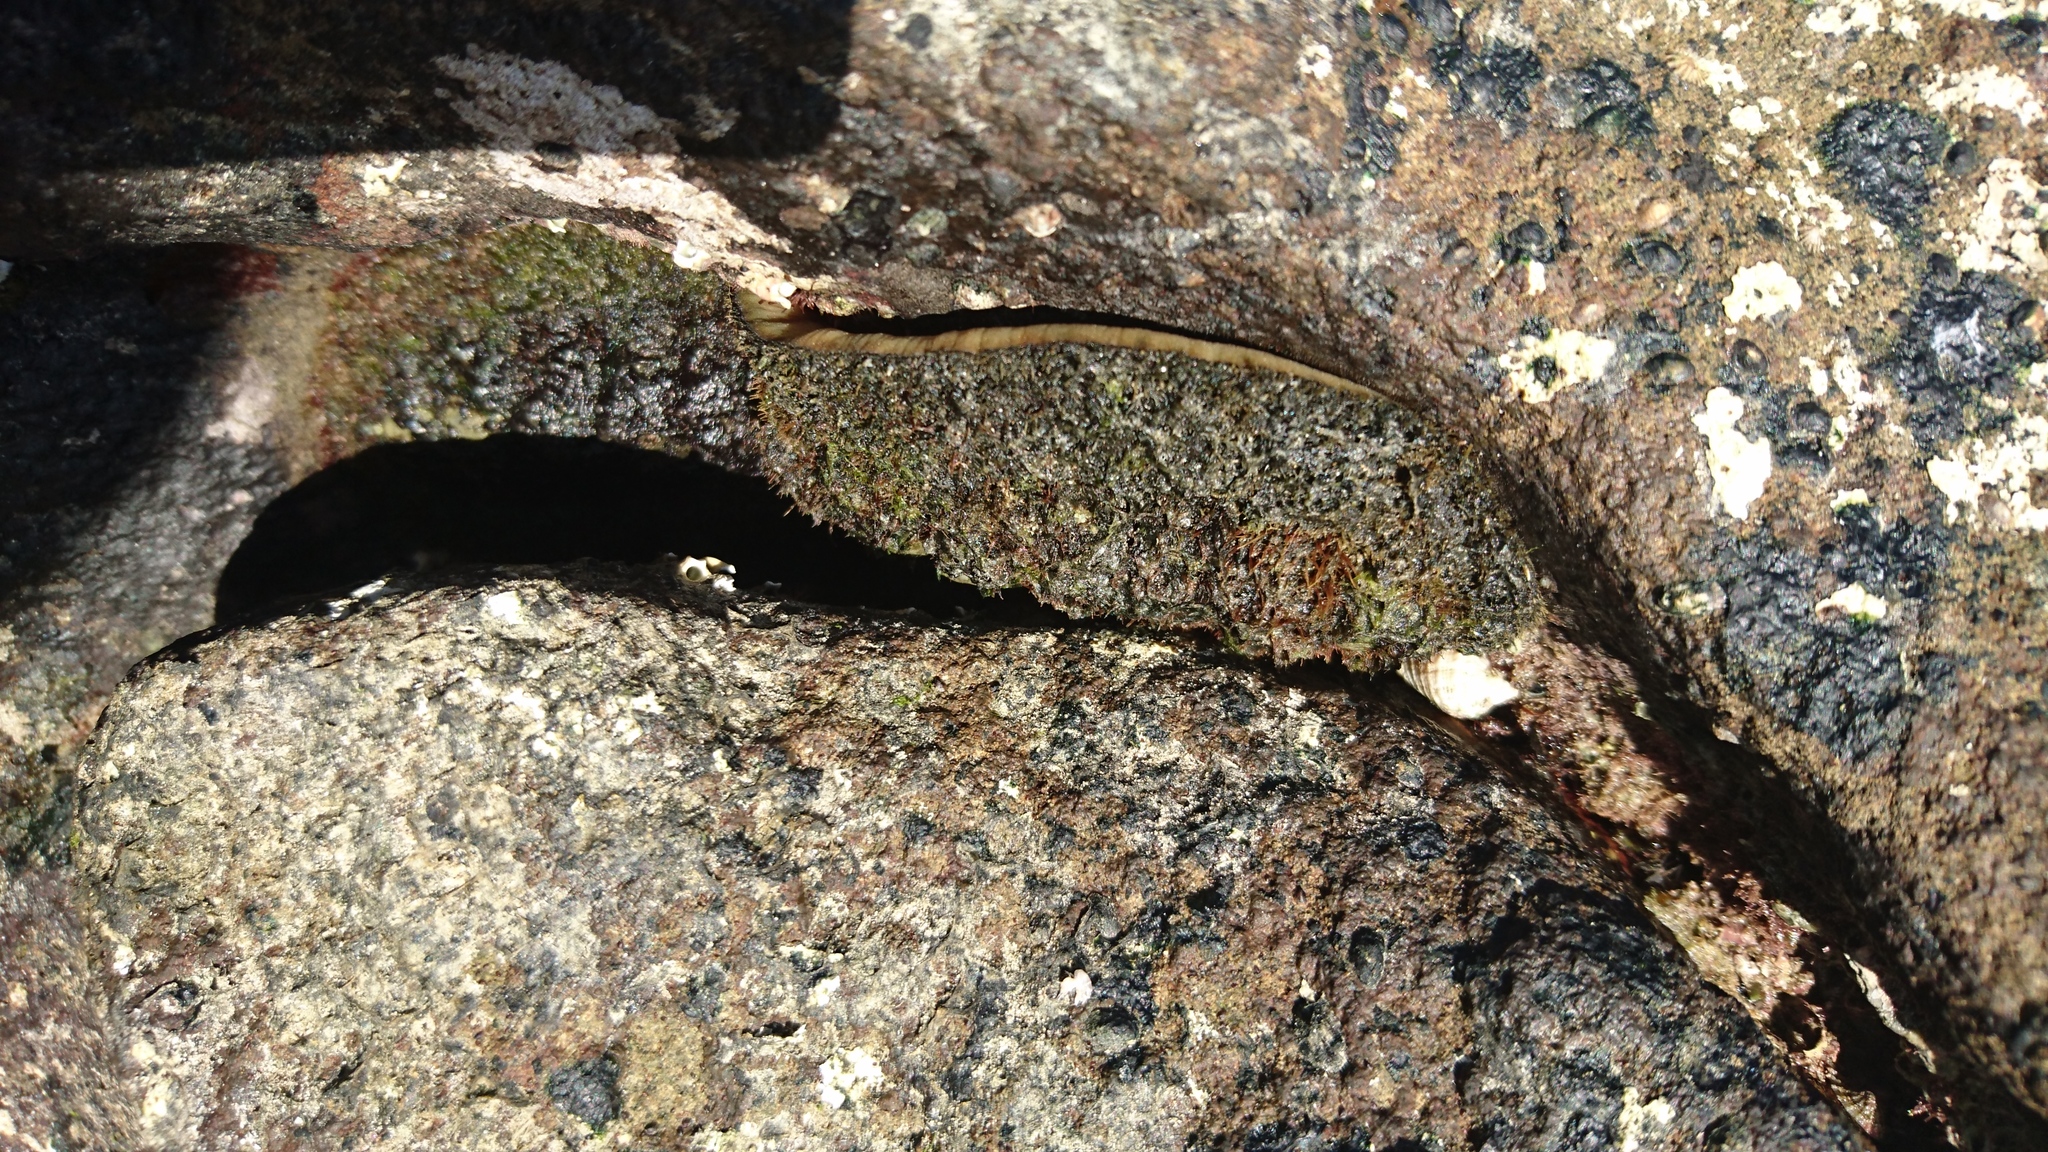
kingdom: Animalia
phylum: Mollusca
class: Polyplacophora
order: Chitonida
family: Mopaliidae
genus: Plaxiphora
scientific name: Plaxiphora albida
